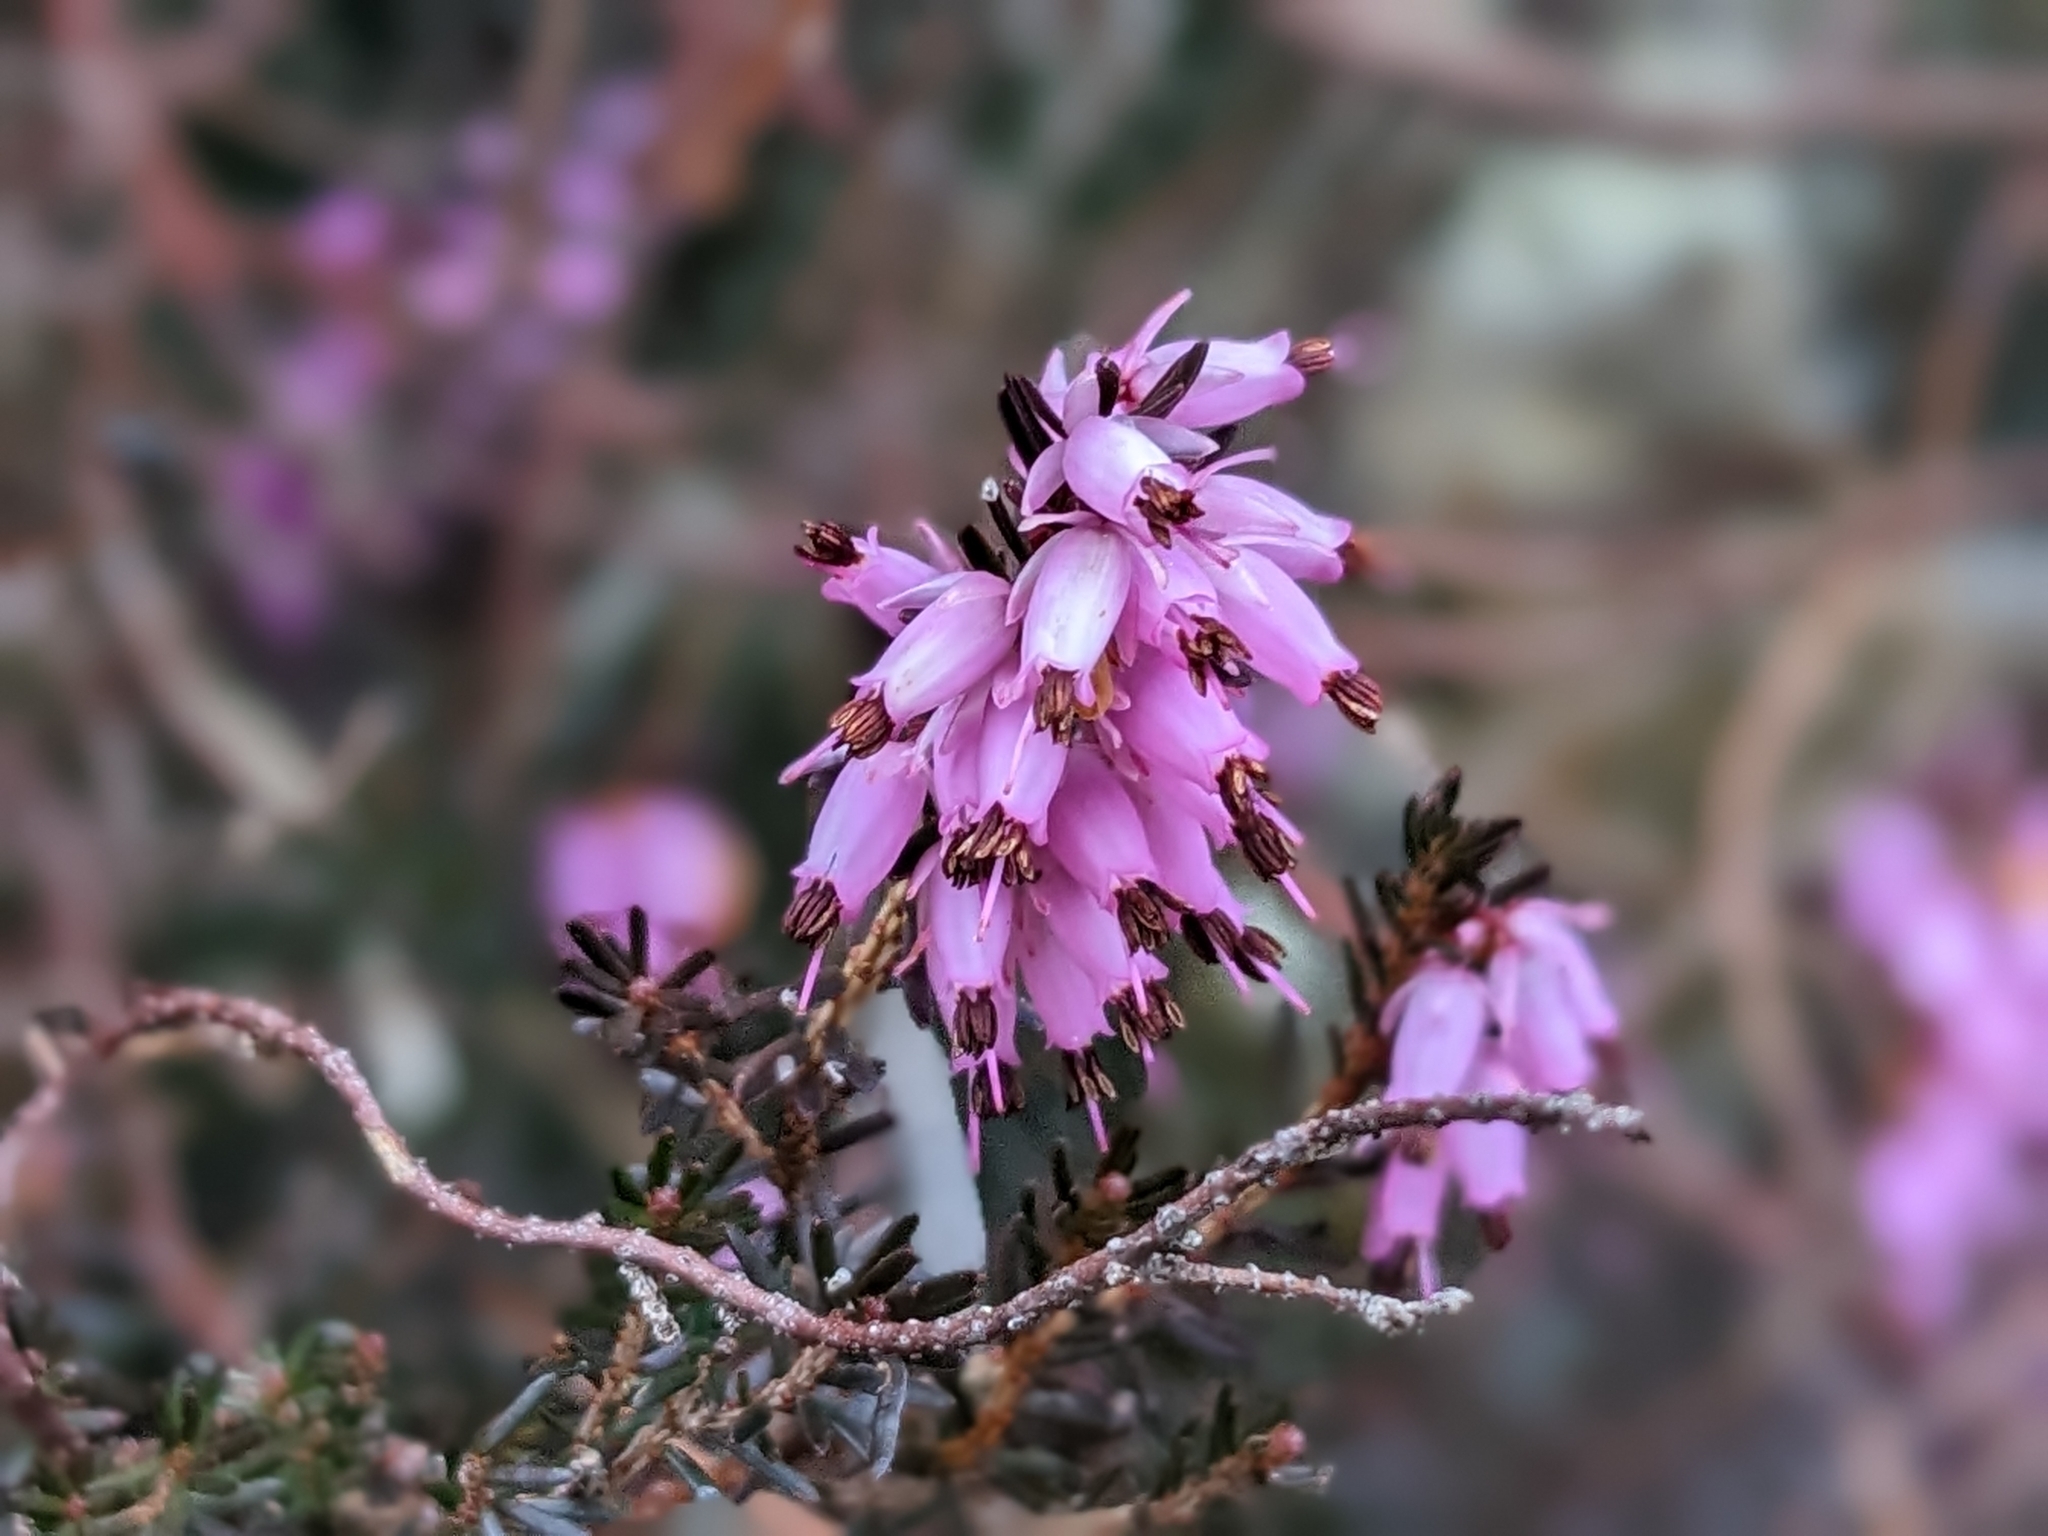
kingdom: Plantae
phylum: Tracheophyta
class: Magnoliopsida
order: Ericales
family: Ericaceae
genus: Erica
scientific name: Erica carnea
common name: Winter heath
